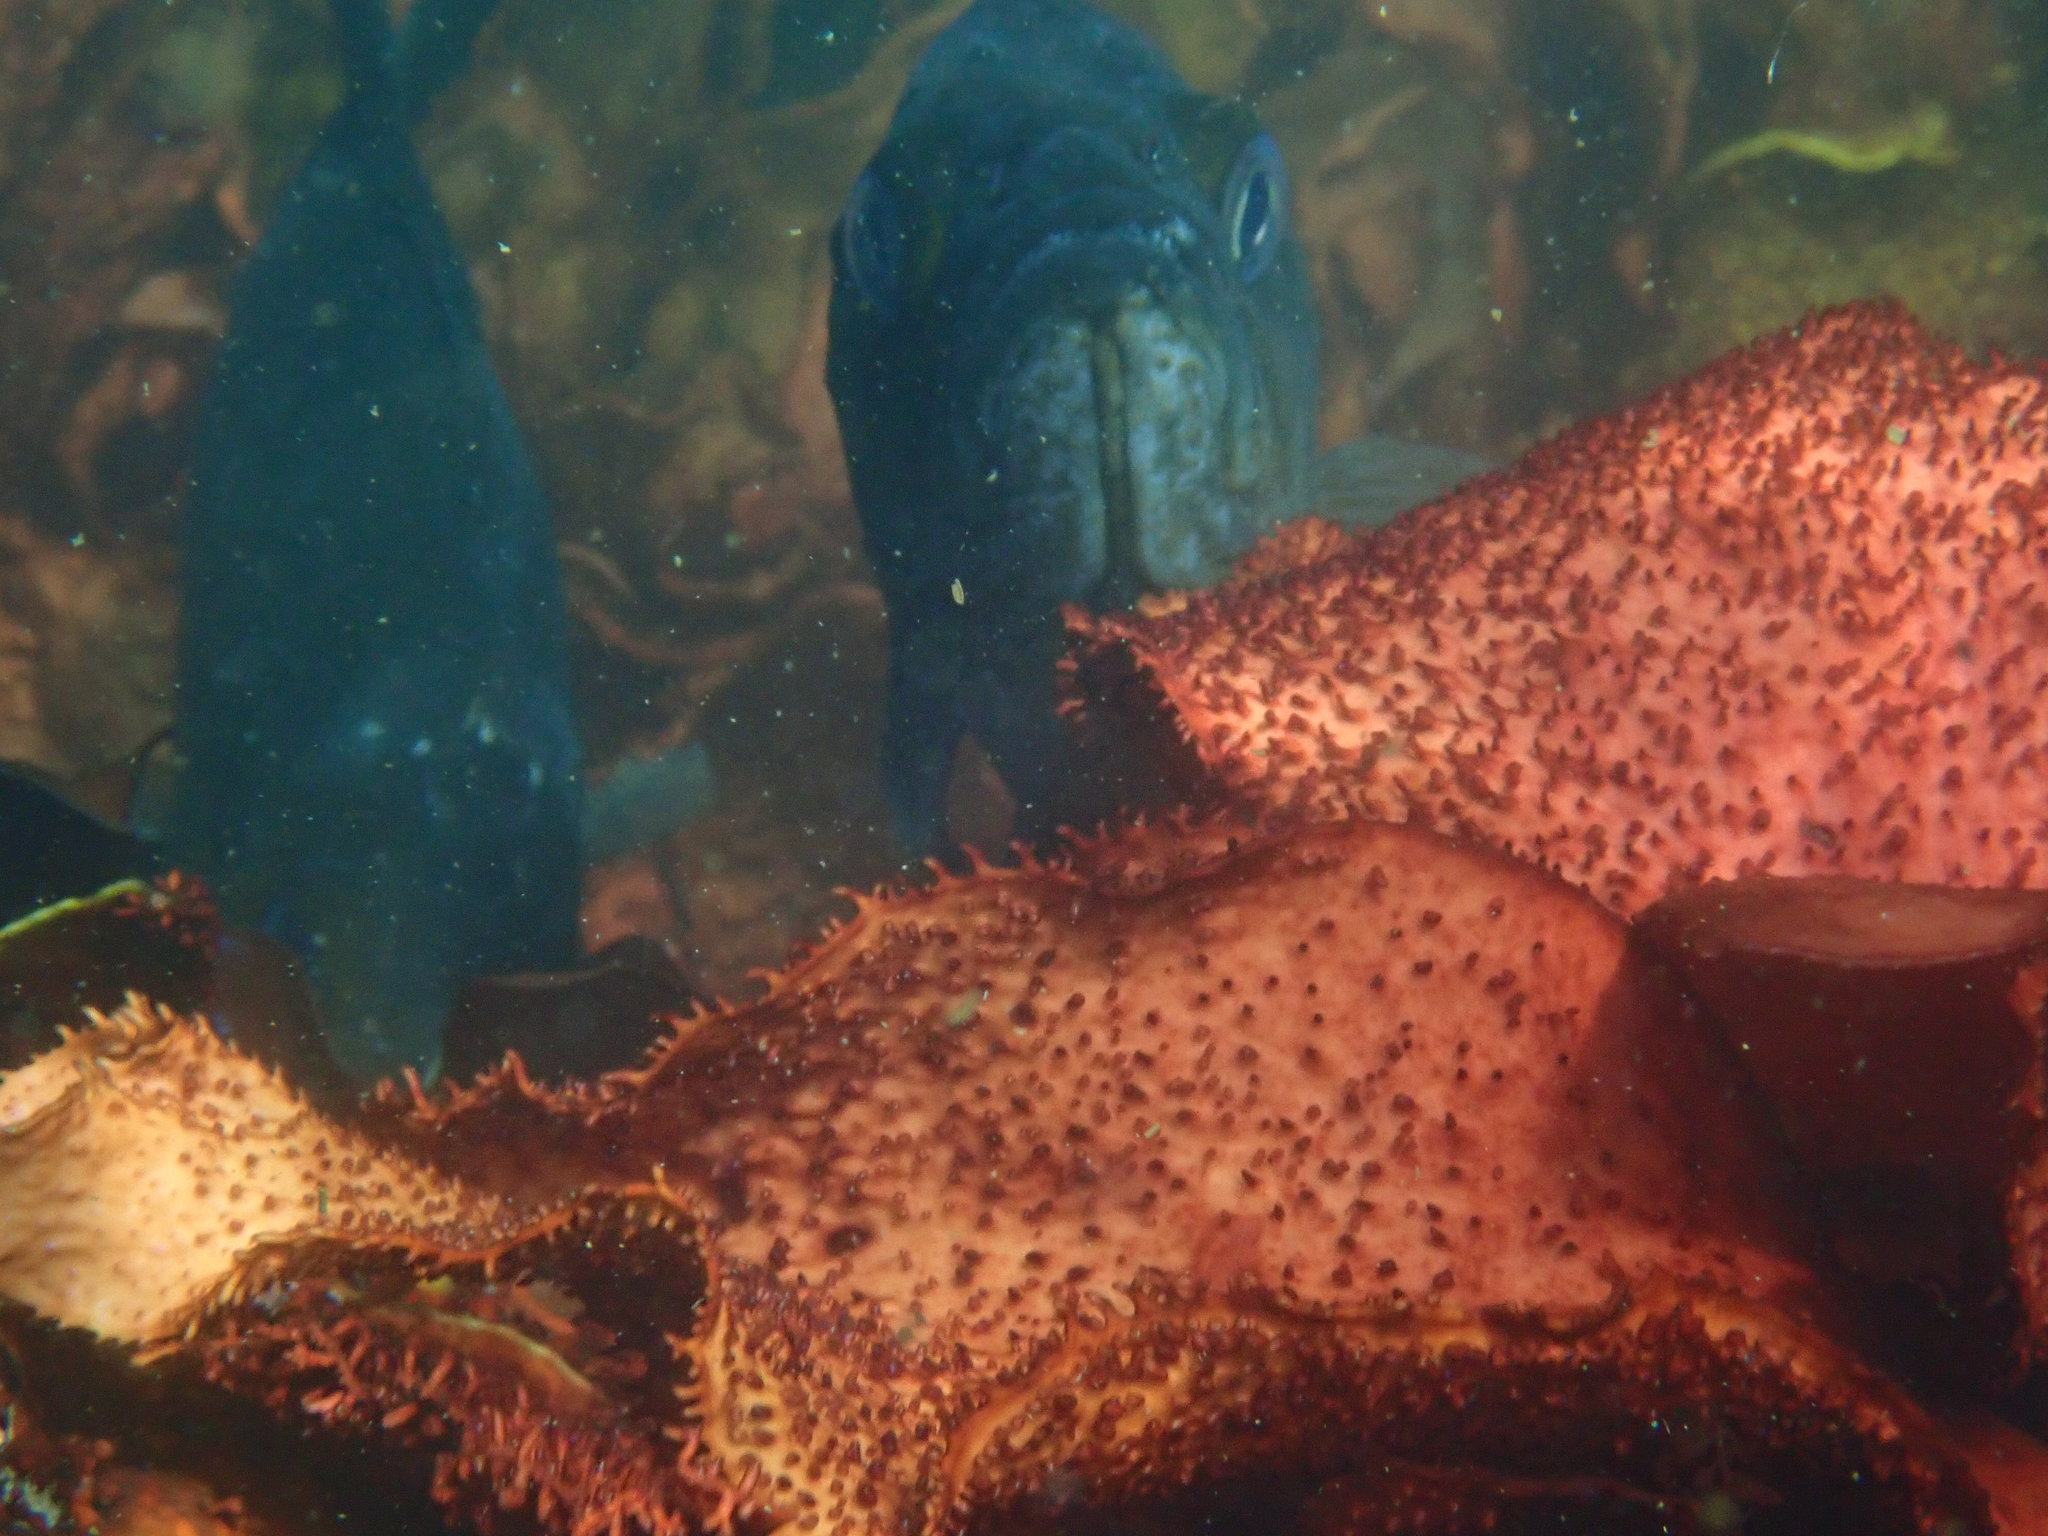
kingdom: Animalia
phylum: Chordata
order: Scorpaeniformes
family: Sebastidae
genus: Sebastes
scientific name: Sebastes atrovirens
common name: Kelp rockfish
